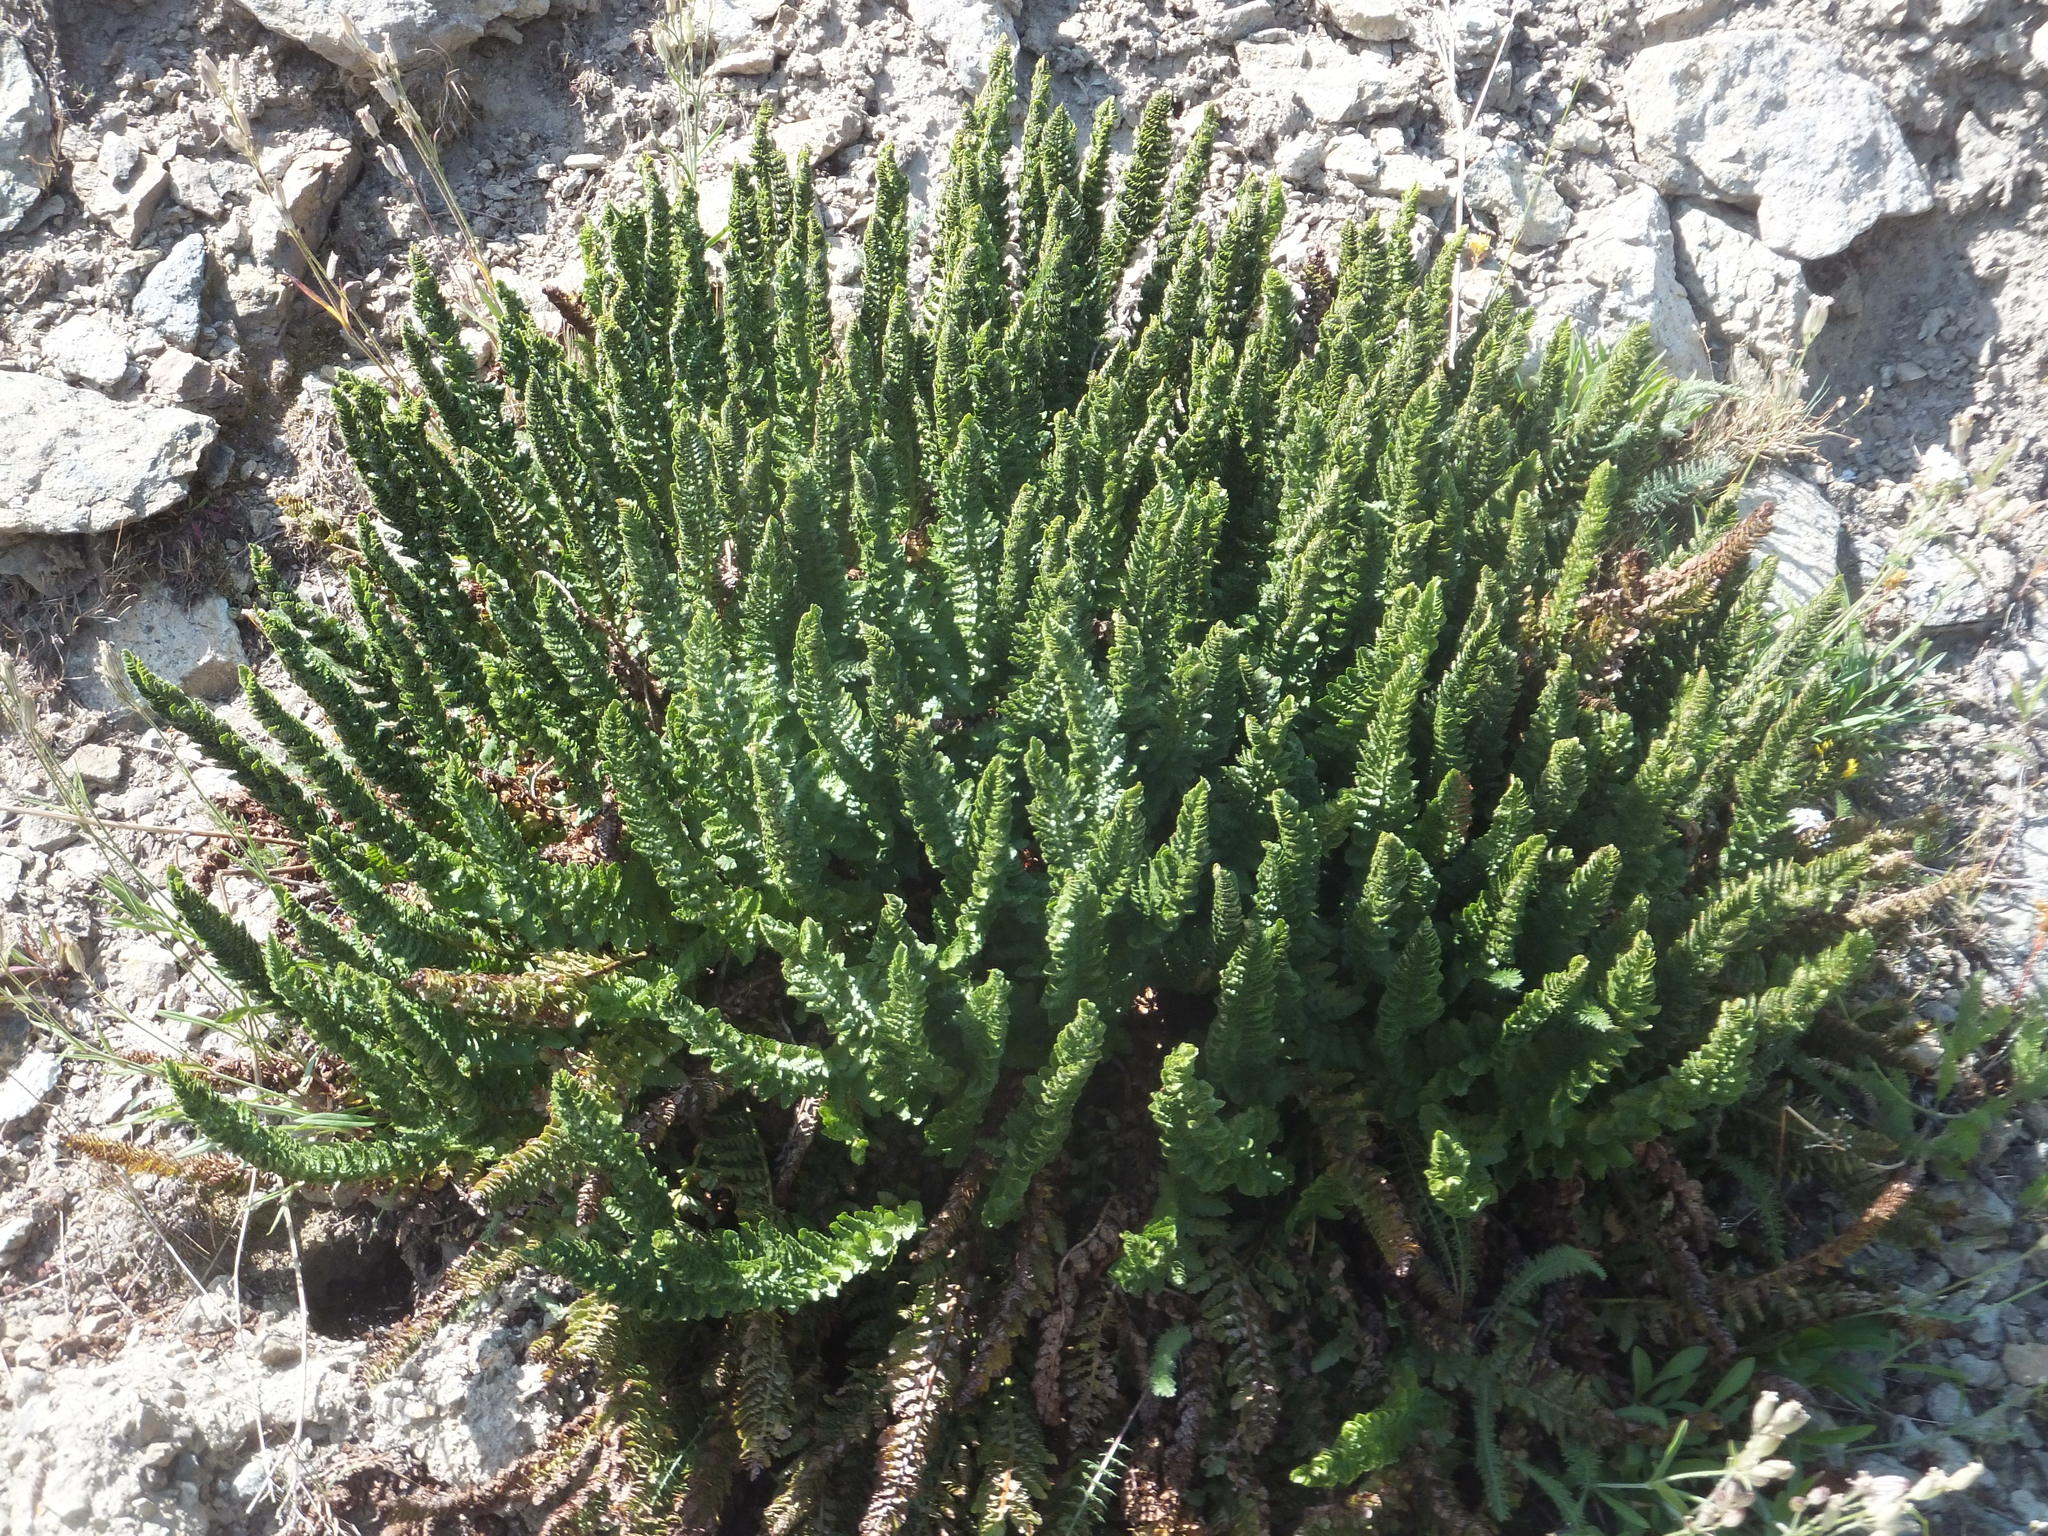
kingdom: Plantae
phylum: Tracheophyta
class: Polypodiopsida
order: Polypodiales
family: Dryopteridaceae
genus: Polystichum
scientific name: Polystichum lemmonii
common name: Lemmon's holly fern
